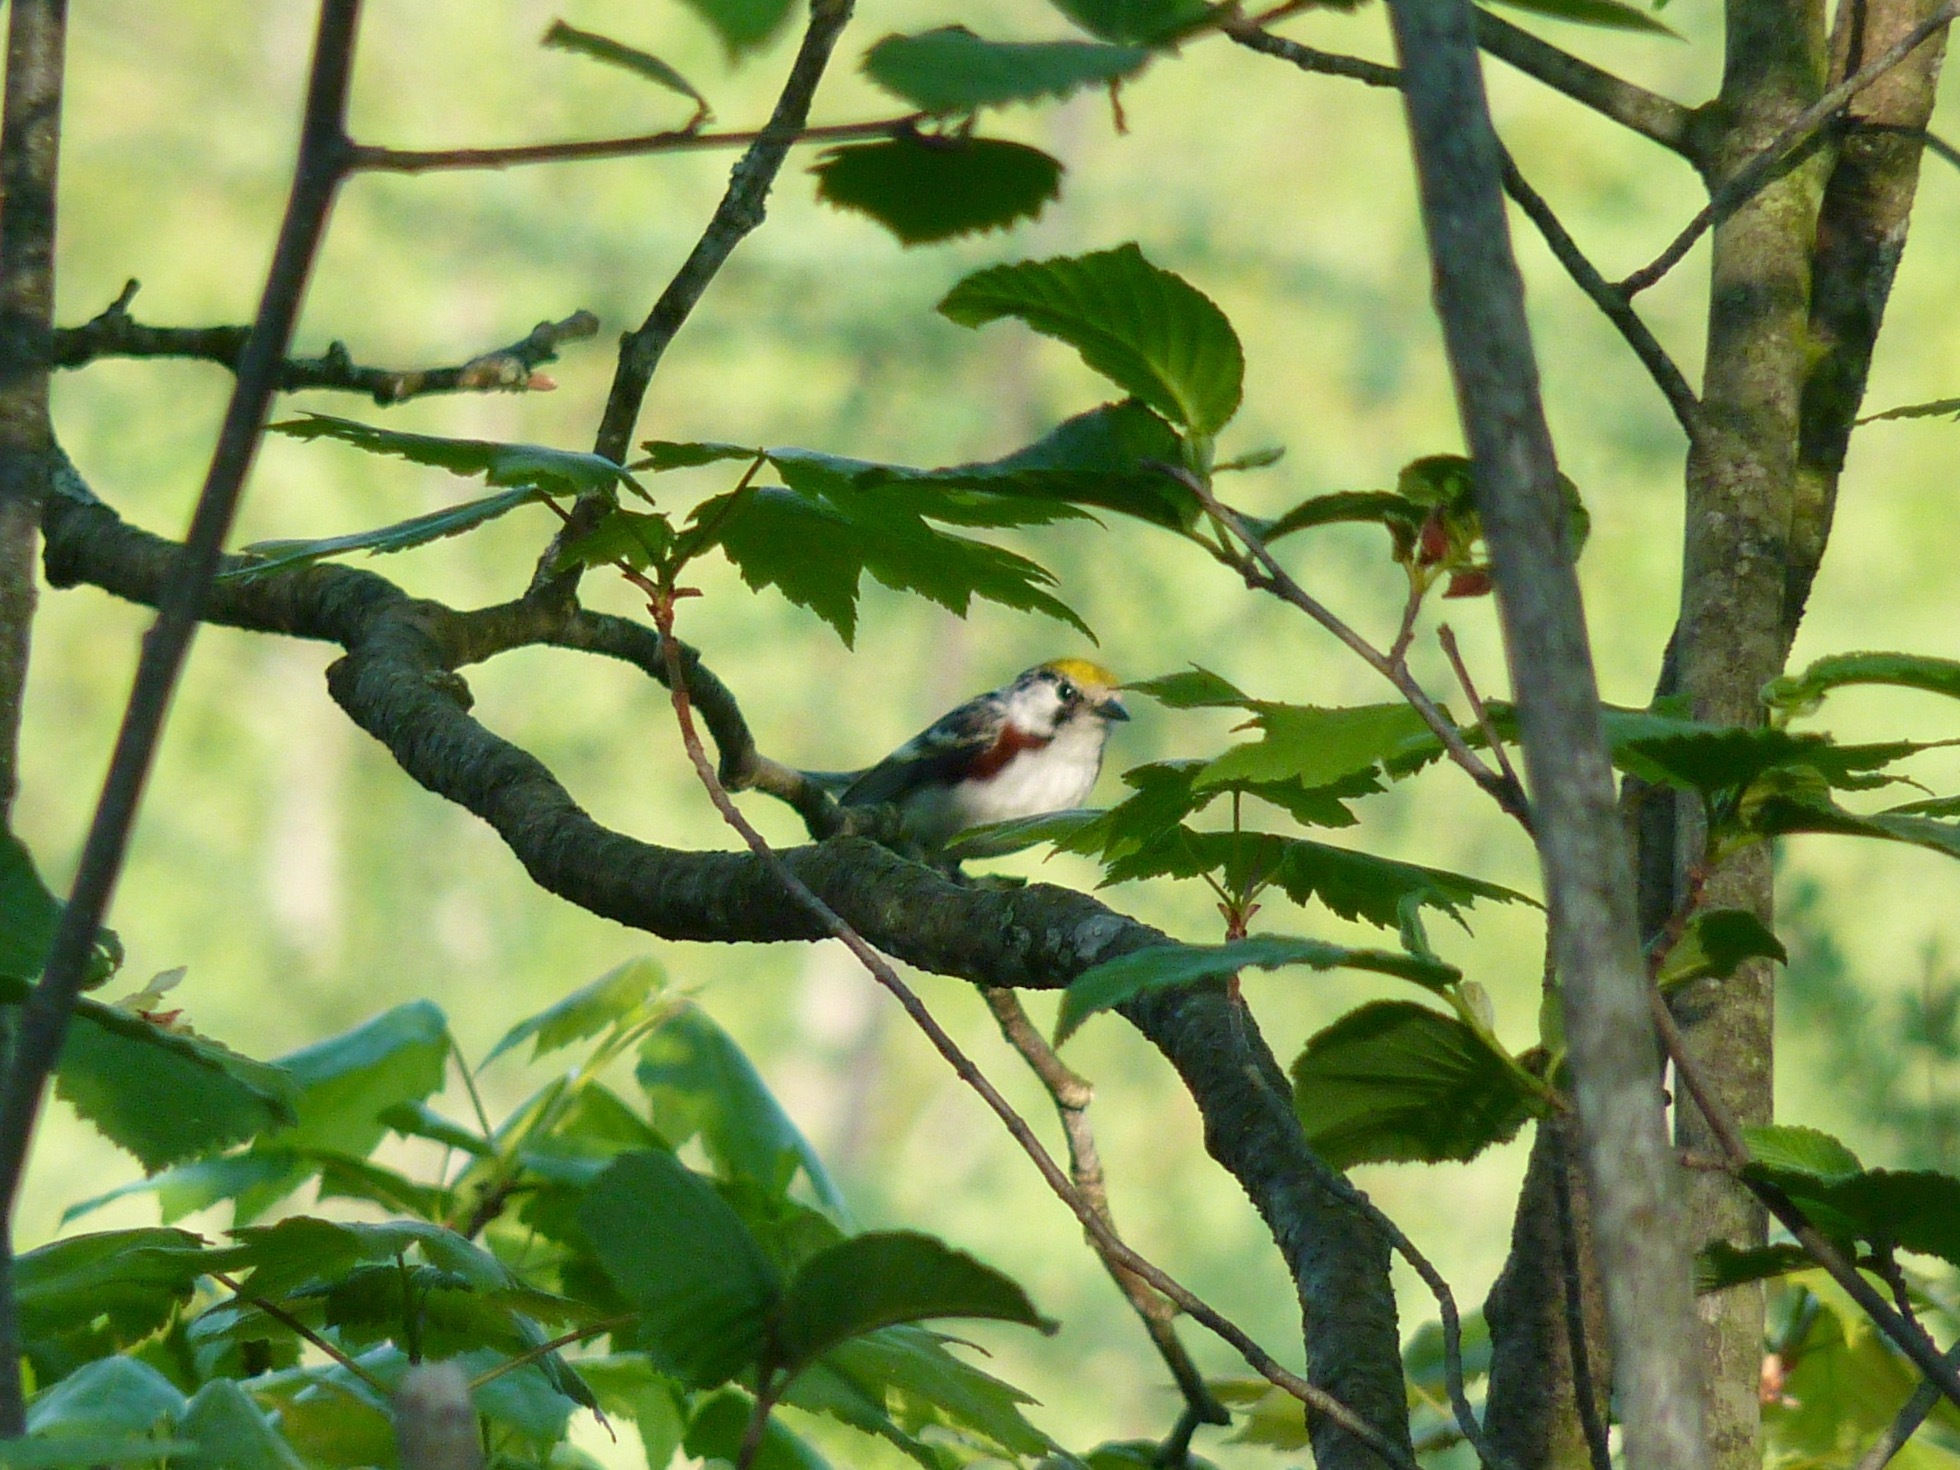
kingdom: Animalia
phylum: Chordata
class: Aves
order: Passeriformes
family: Parulidae
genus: Setophaga
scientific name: Setophaga pensylvanica
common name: Chestnut-sided warbler
